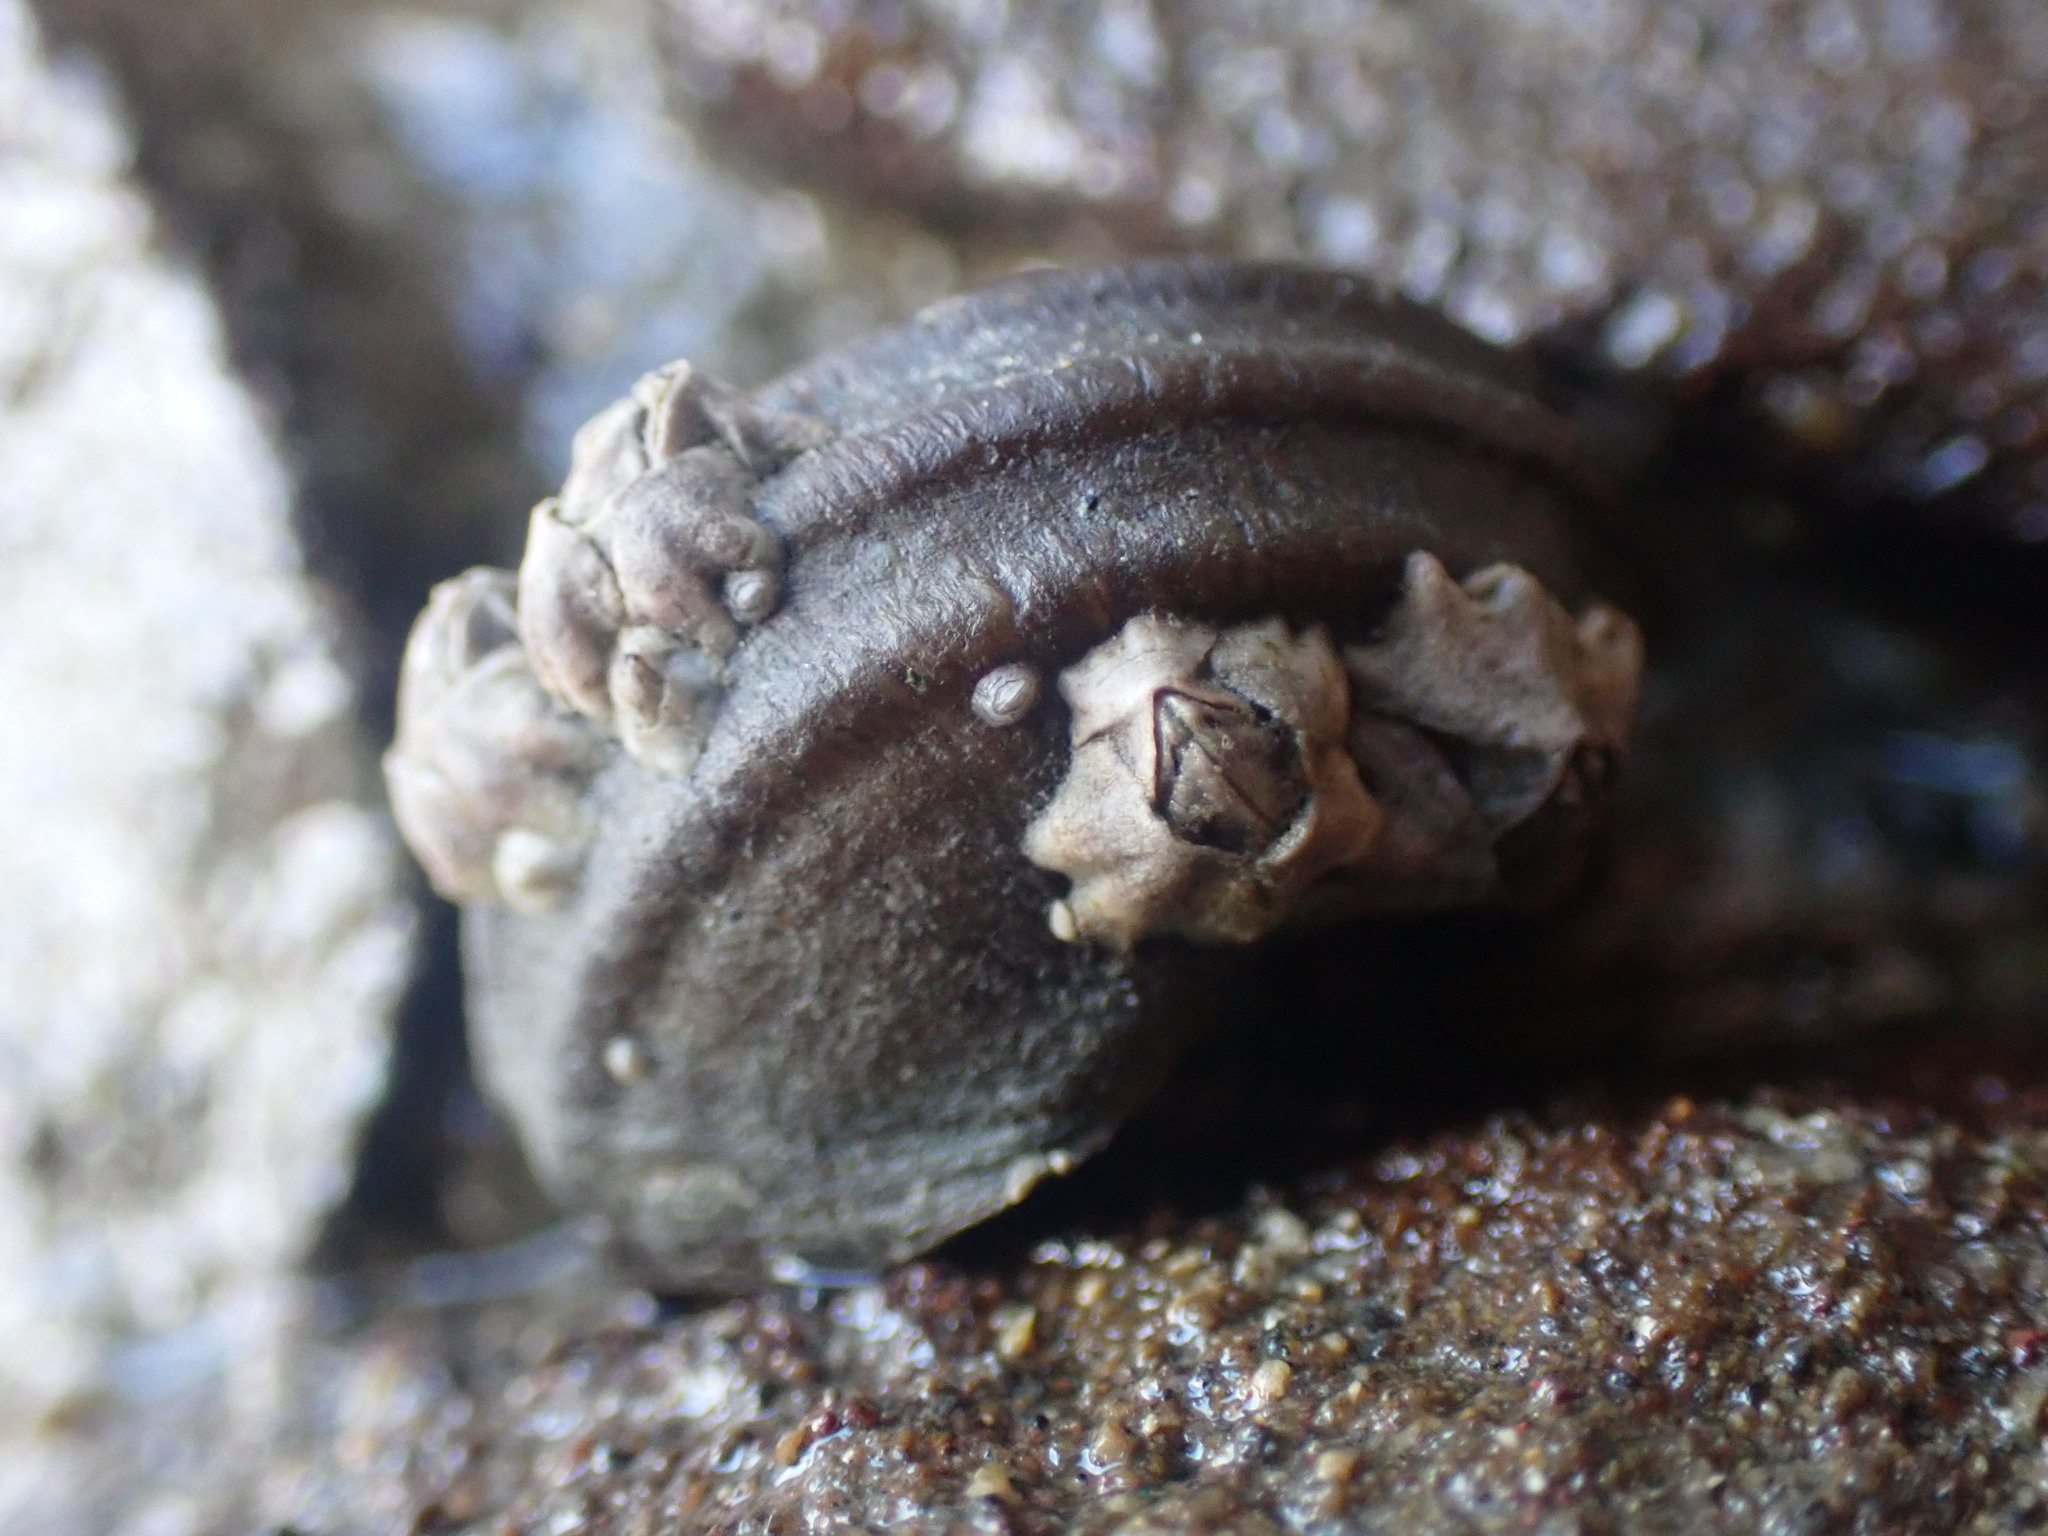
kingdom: Animalia
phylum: Mollusca
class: Gastropoda
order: Trochida
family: Turbinidae
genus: Lunella
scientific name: Lunella smaragda
